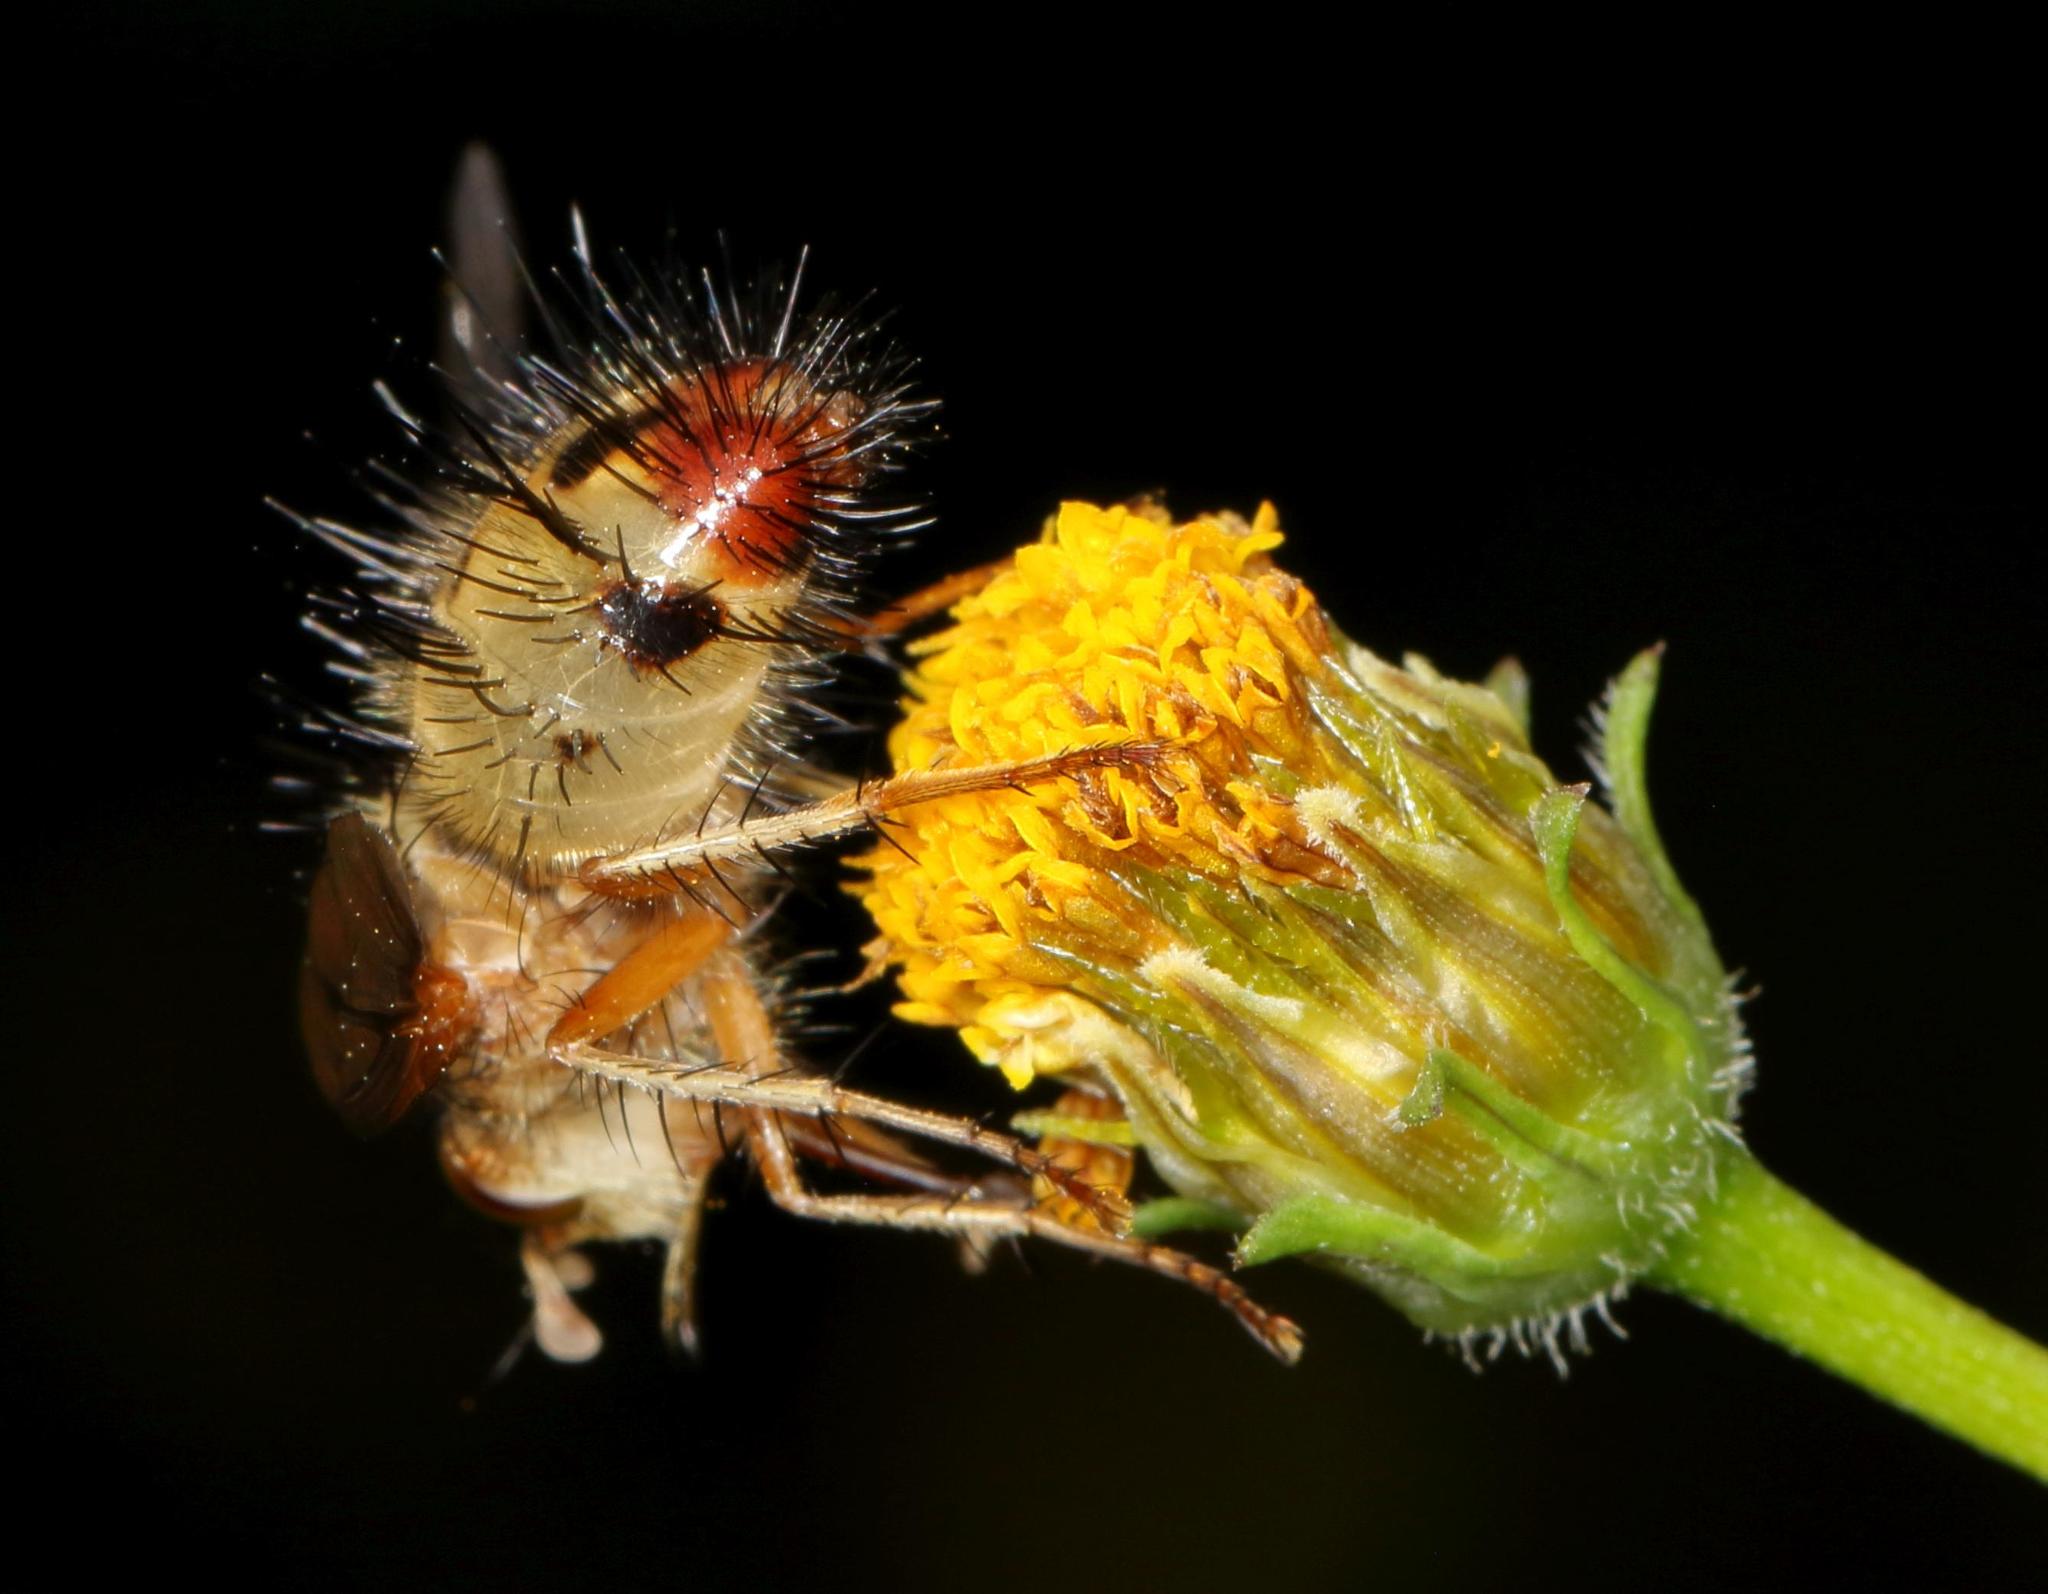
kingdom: Animalia
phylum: Arthropoda
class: Insecta
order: Diptera
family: Tachinidae
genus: Dejeania
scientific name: Dejeania bombylans
